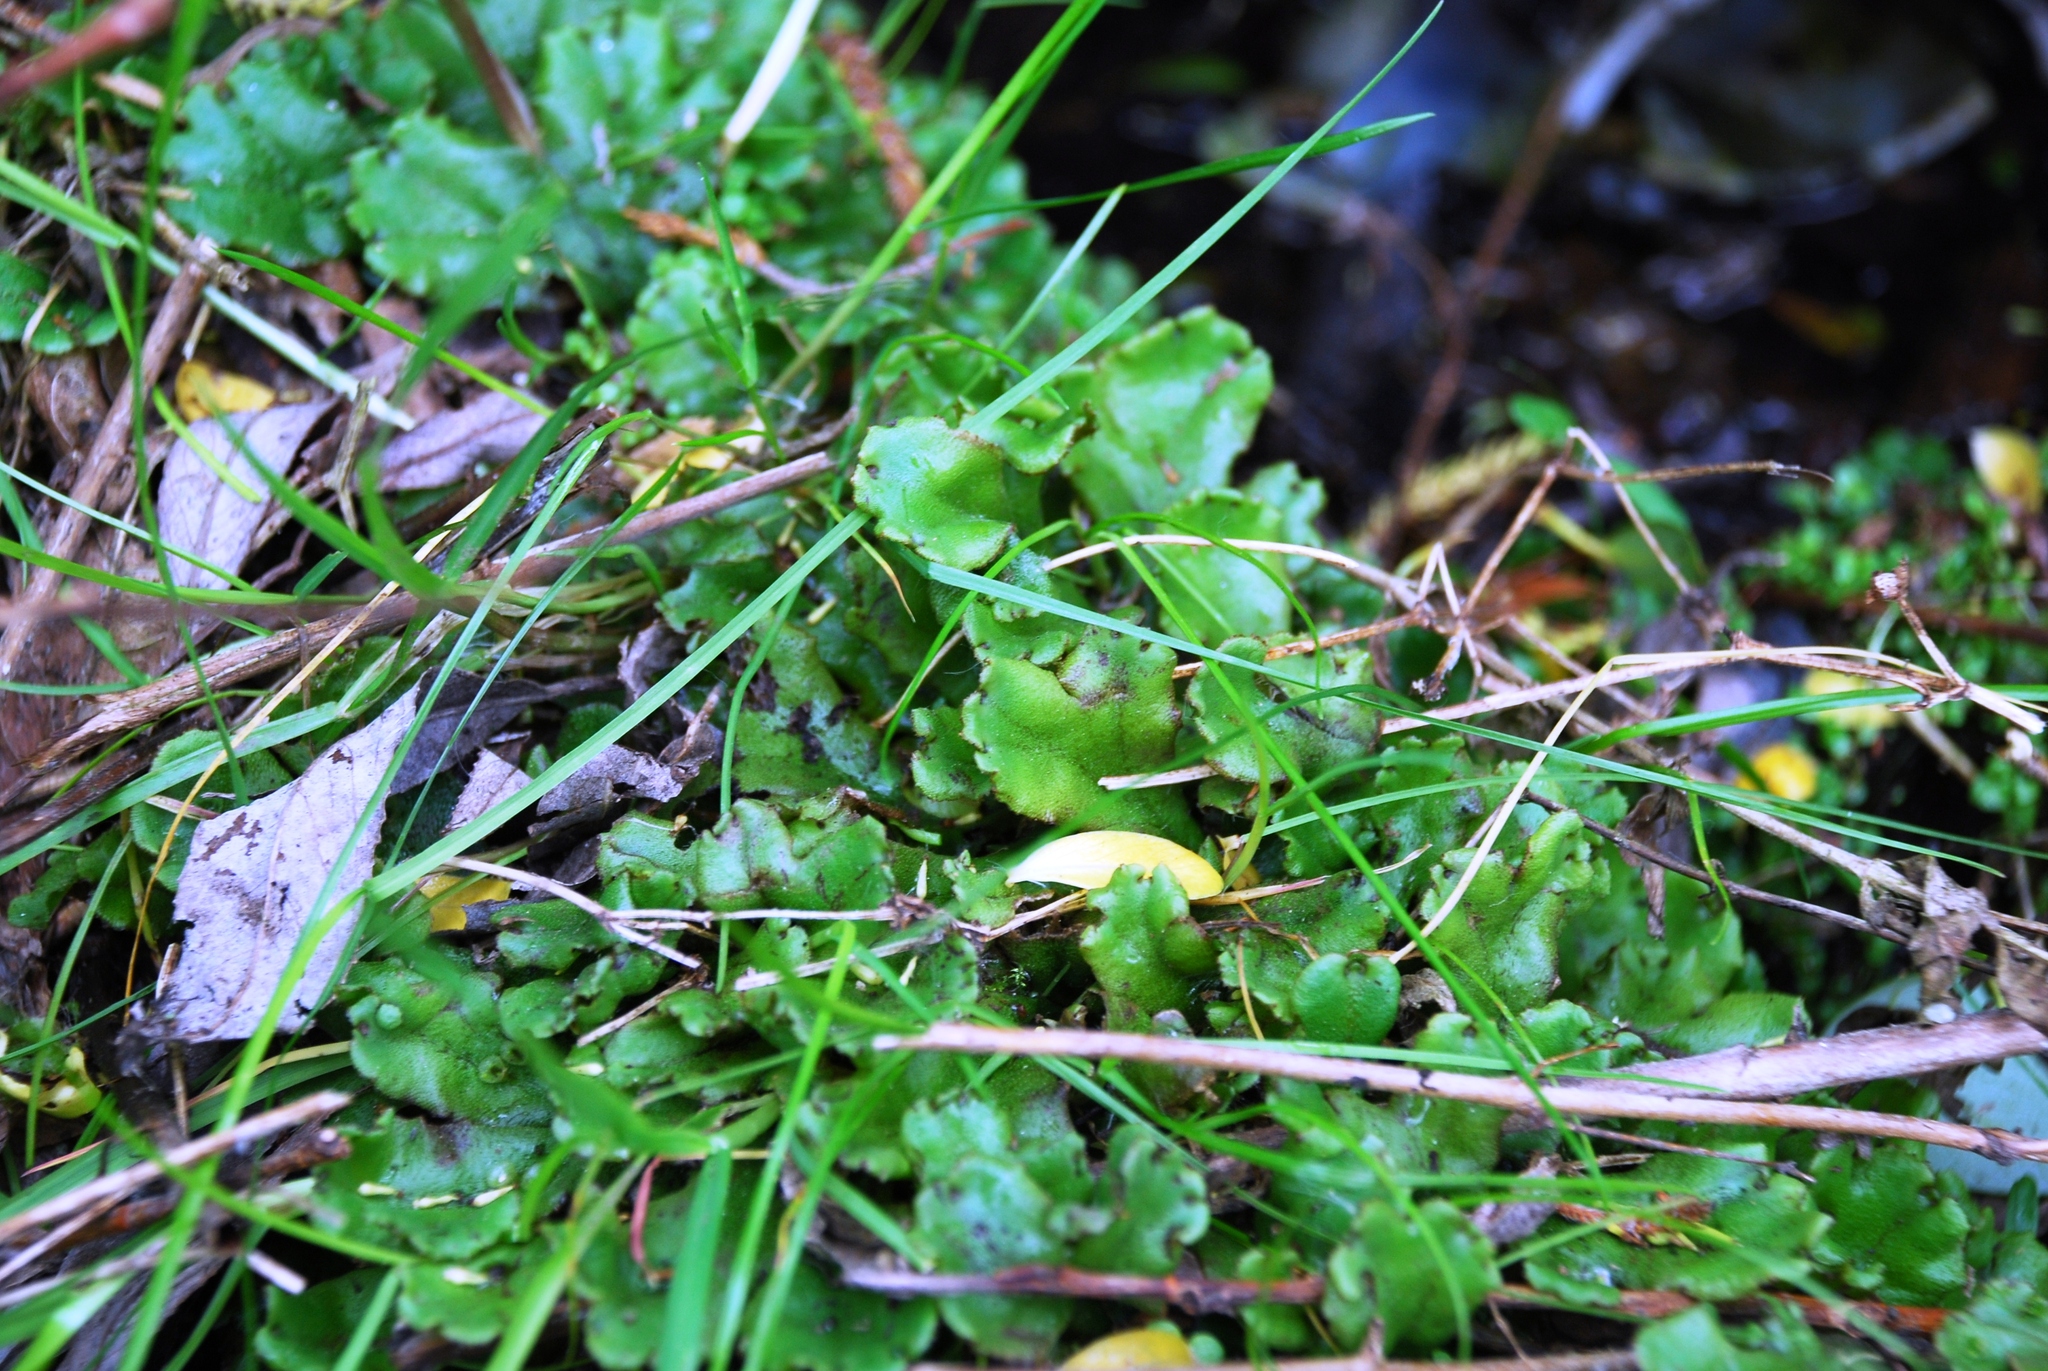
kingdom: Plantae
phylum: Marchantiophyta
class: Marchantiopsida
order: Marchantiales
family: Marchantiaceae
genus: Marchantia
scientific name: Marchantia polymorpha
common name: Common liverwort
